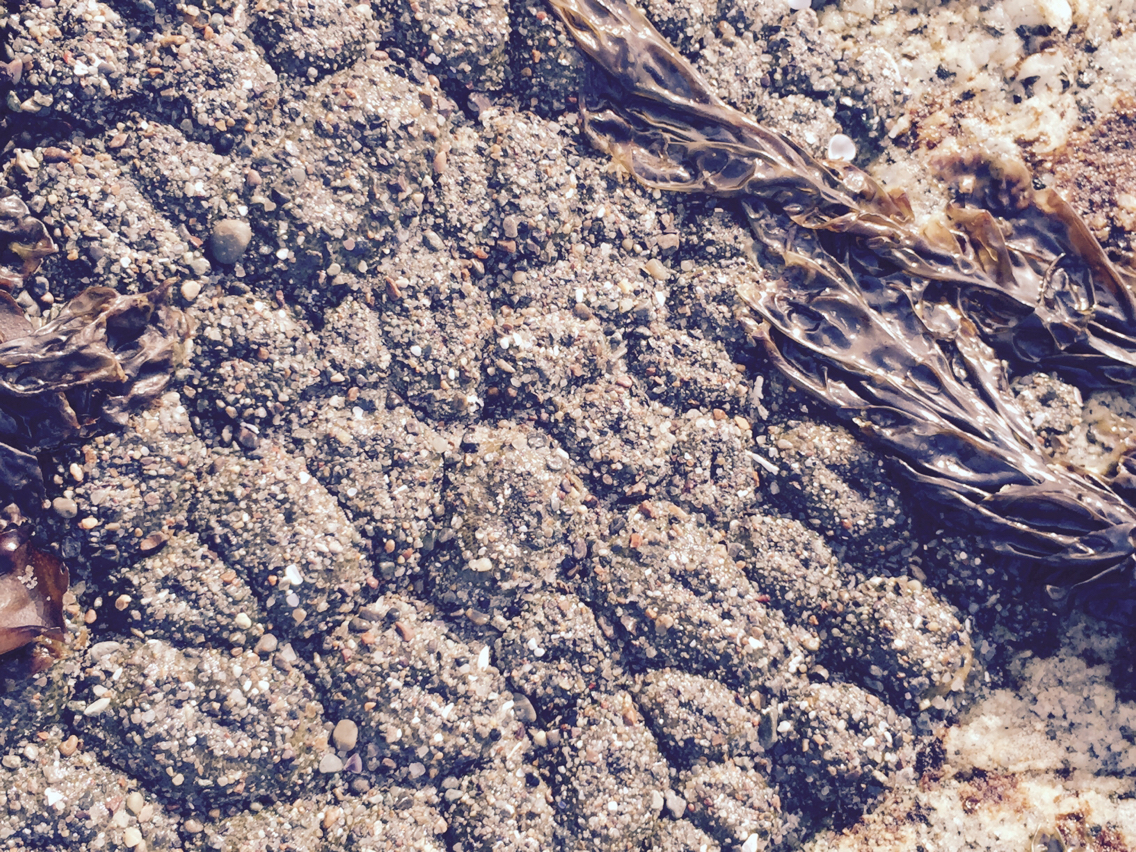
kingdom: Animalia
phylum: Cnidaria
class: Anthozoa
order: Actiniaria
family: Actiniidae
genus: Anthopleura
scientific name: Anthopleura elegantissima
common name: Clonal anemone
